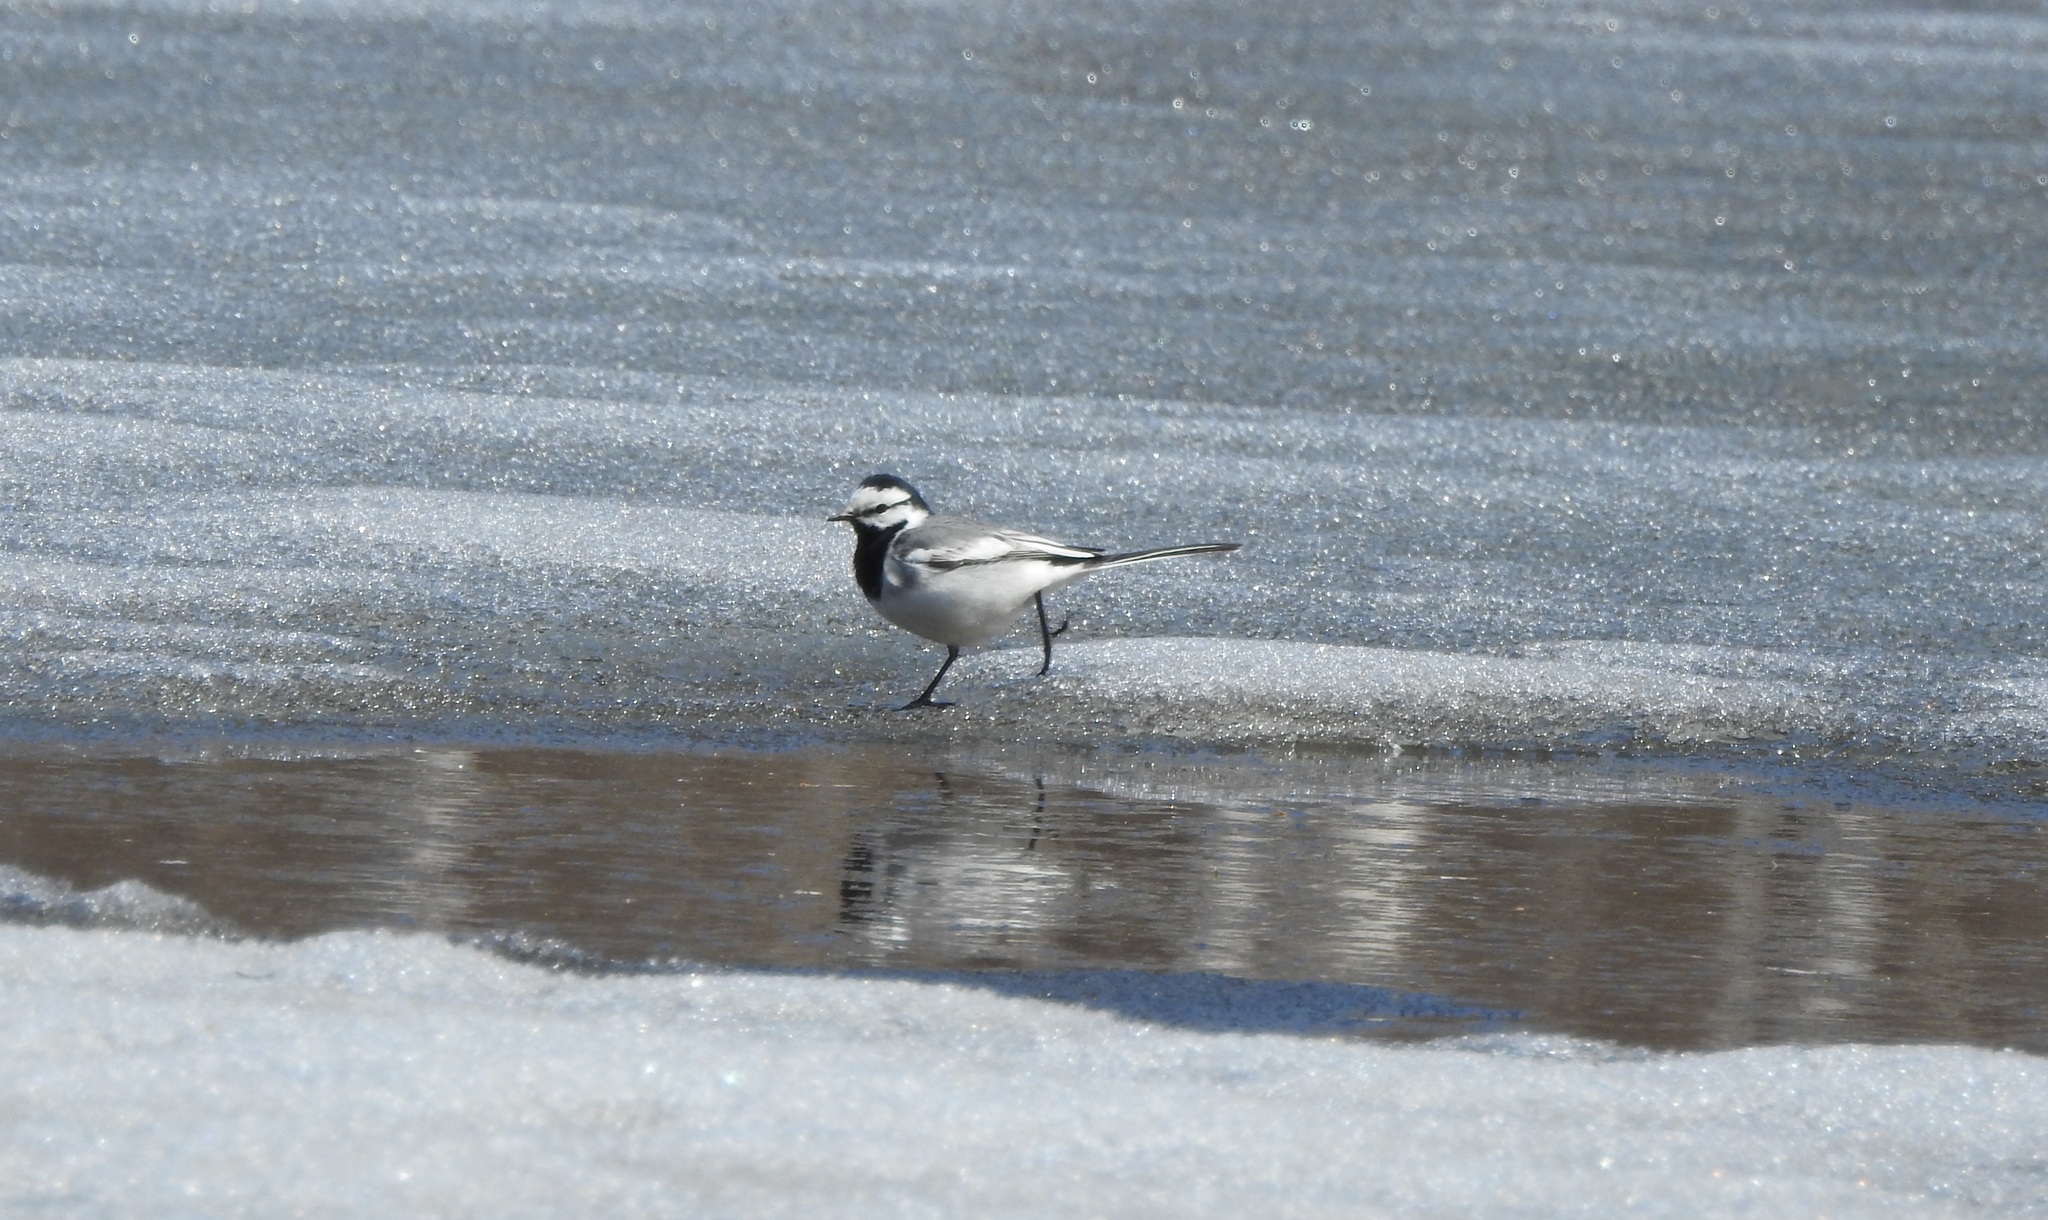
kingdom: Animalia
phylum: Chordata
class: Aves
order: Passeriformes
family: Motacillidae
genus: Motacilla
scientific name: Motacilla alba
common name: White wagtail
